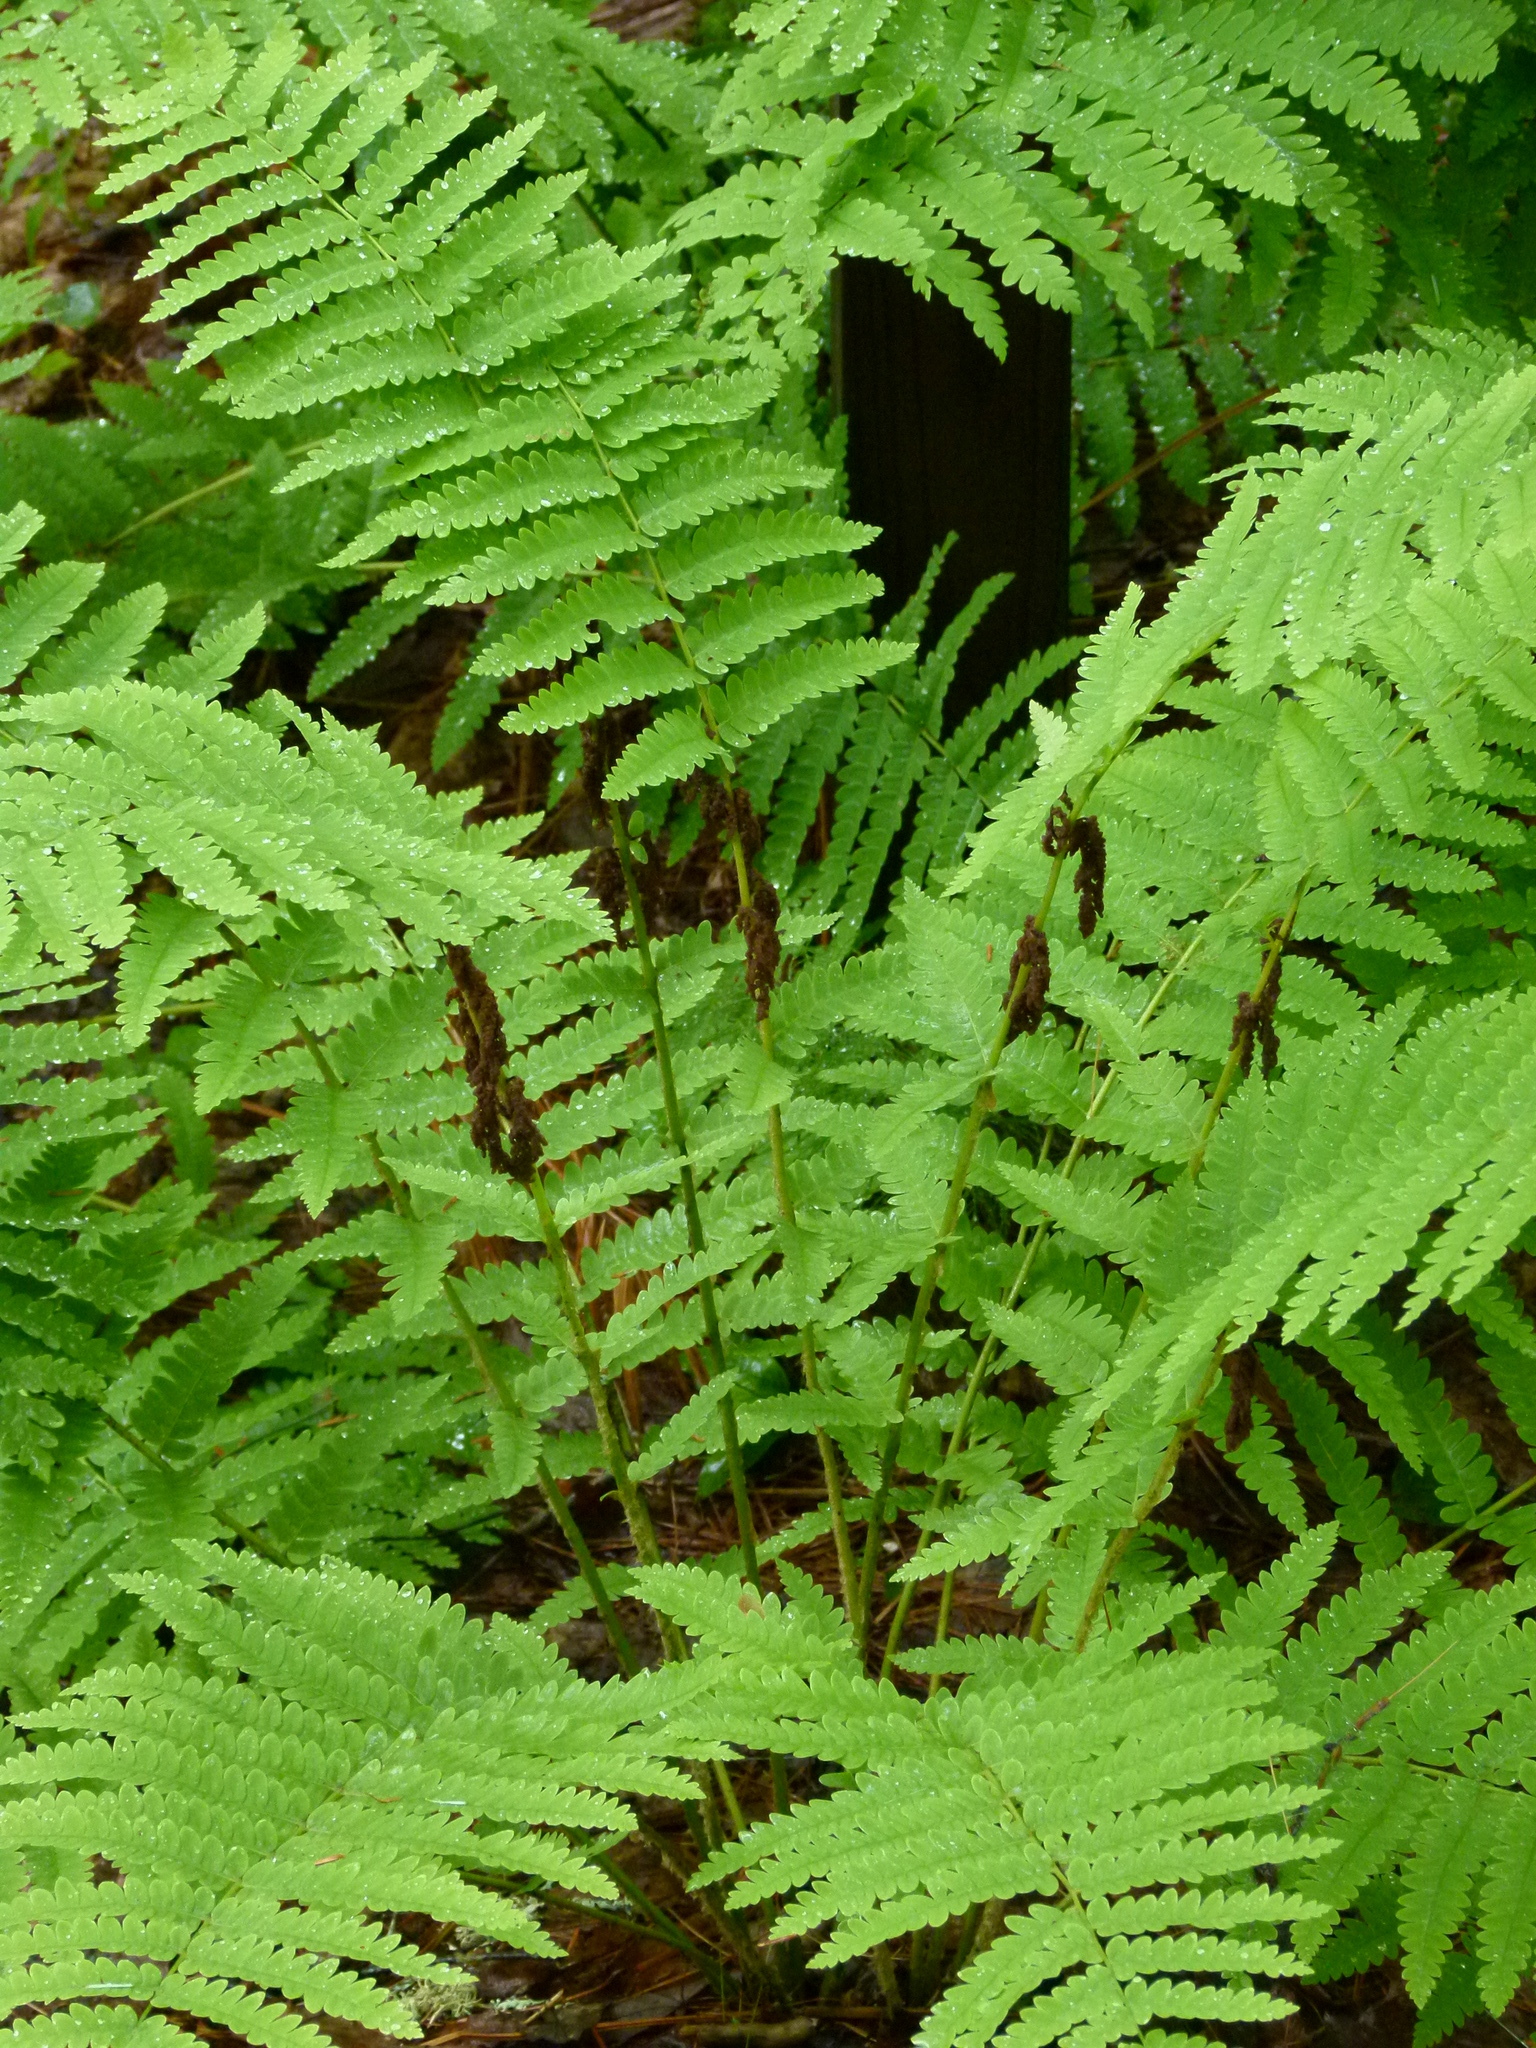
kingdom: Plantae
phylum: Tracheophyta
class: Polypodiopsida
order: Osmundales
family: Osmundaceae
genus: Claytosmunda
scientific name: Claytosmunda claytoniana
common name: Clayton's fern
